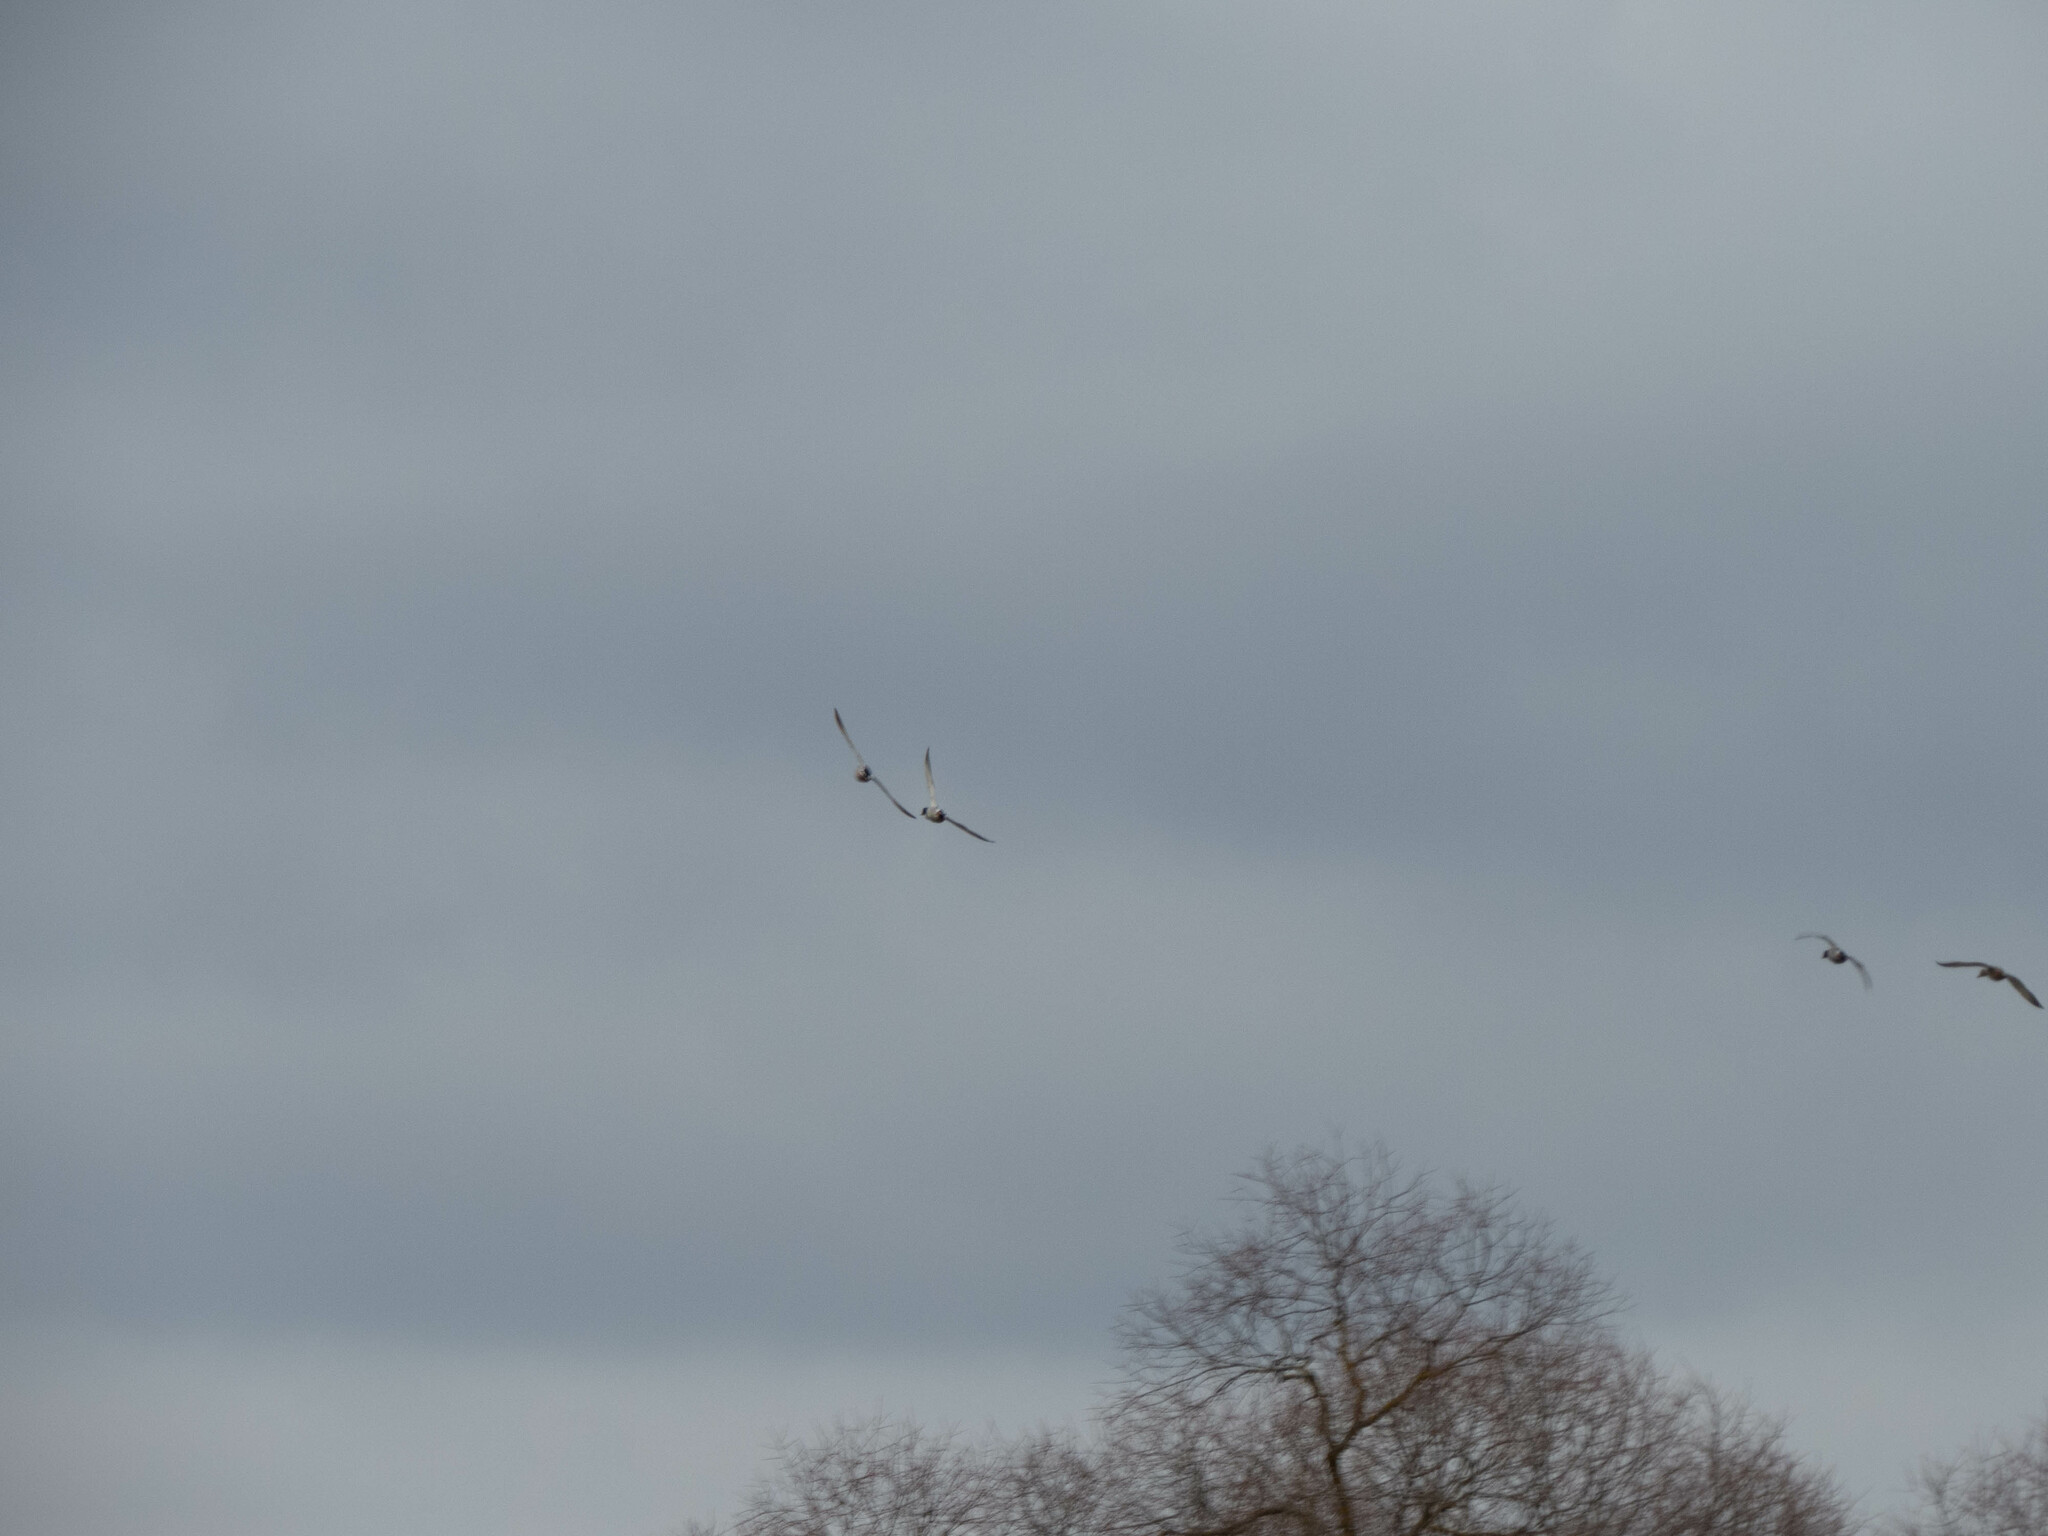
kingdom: Animalia
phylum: Chordata
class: Aves
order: Anseriformes
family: Anatidae
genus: Anas
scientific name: Anas platyrhynchos
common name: Mallard
